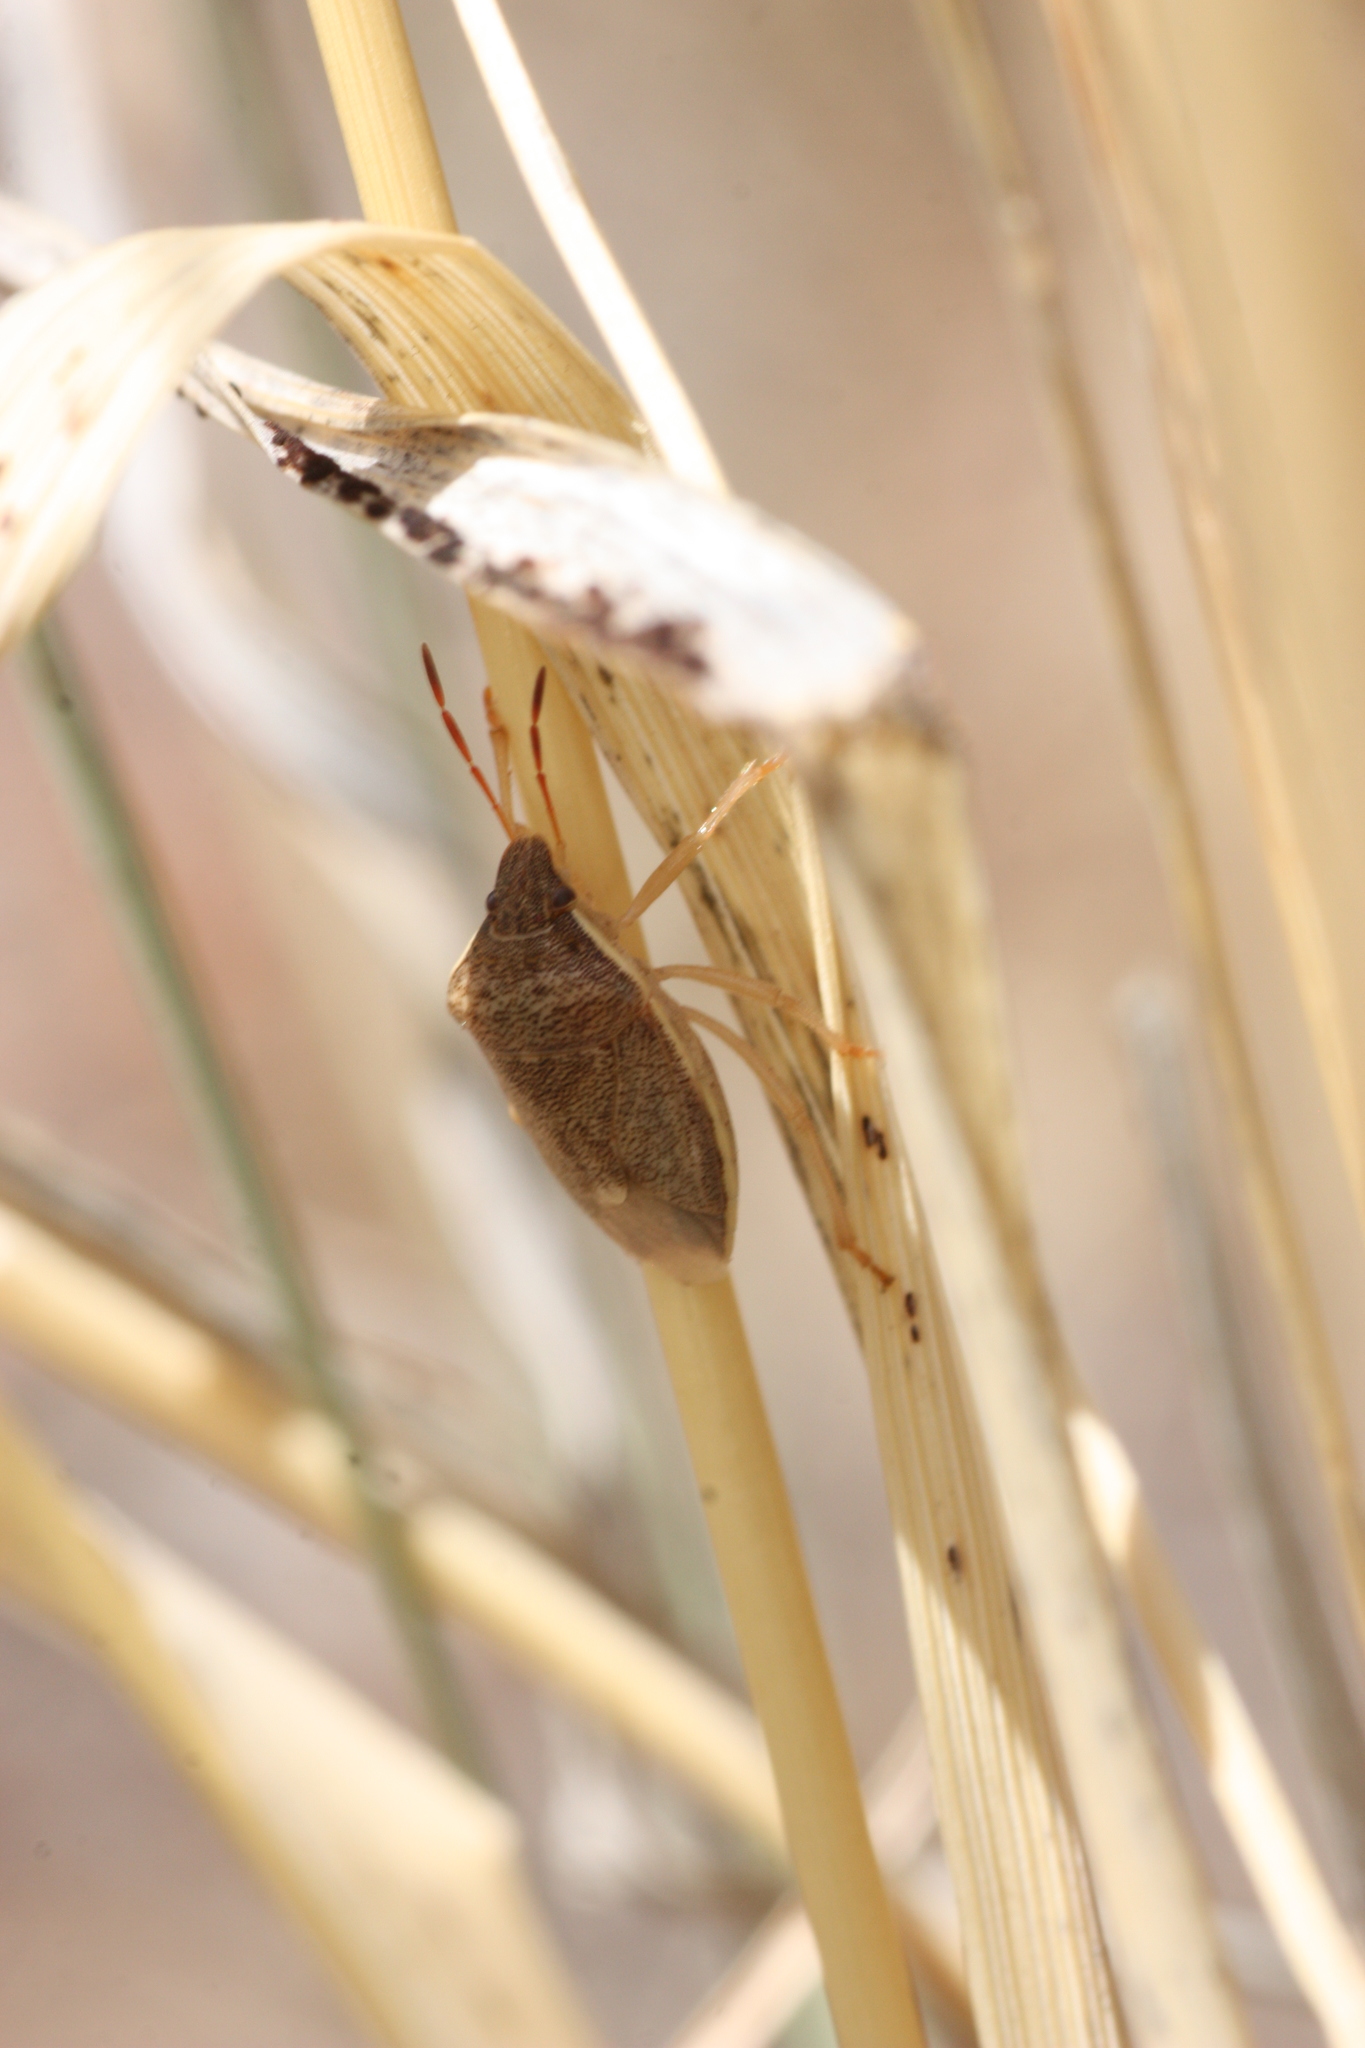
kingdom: Animalia
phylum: Arthropoda
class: Insecta
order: Hemiptera
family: Pentatomidae
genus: Holcostethus
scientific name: Holcostethus limbolarius
